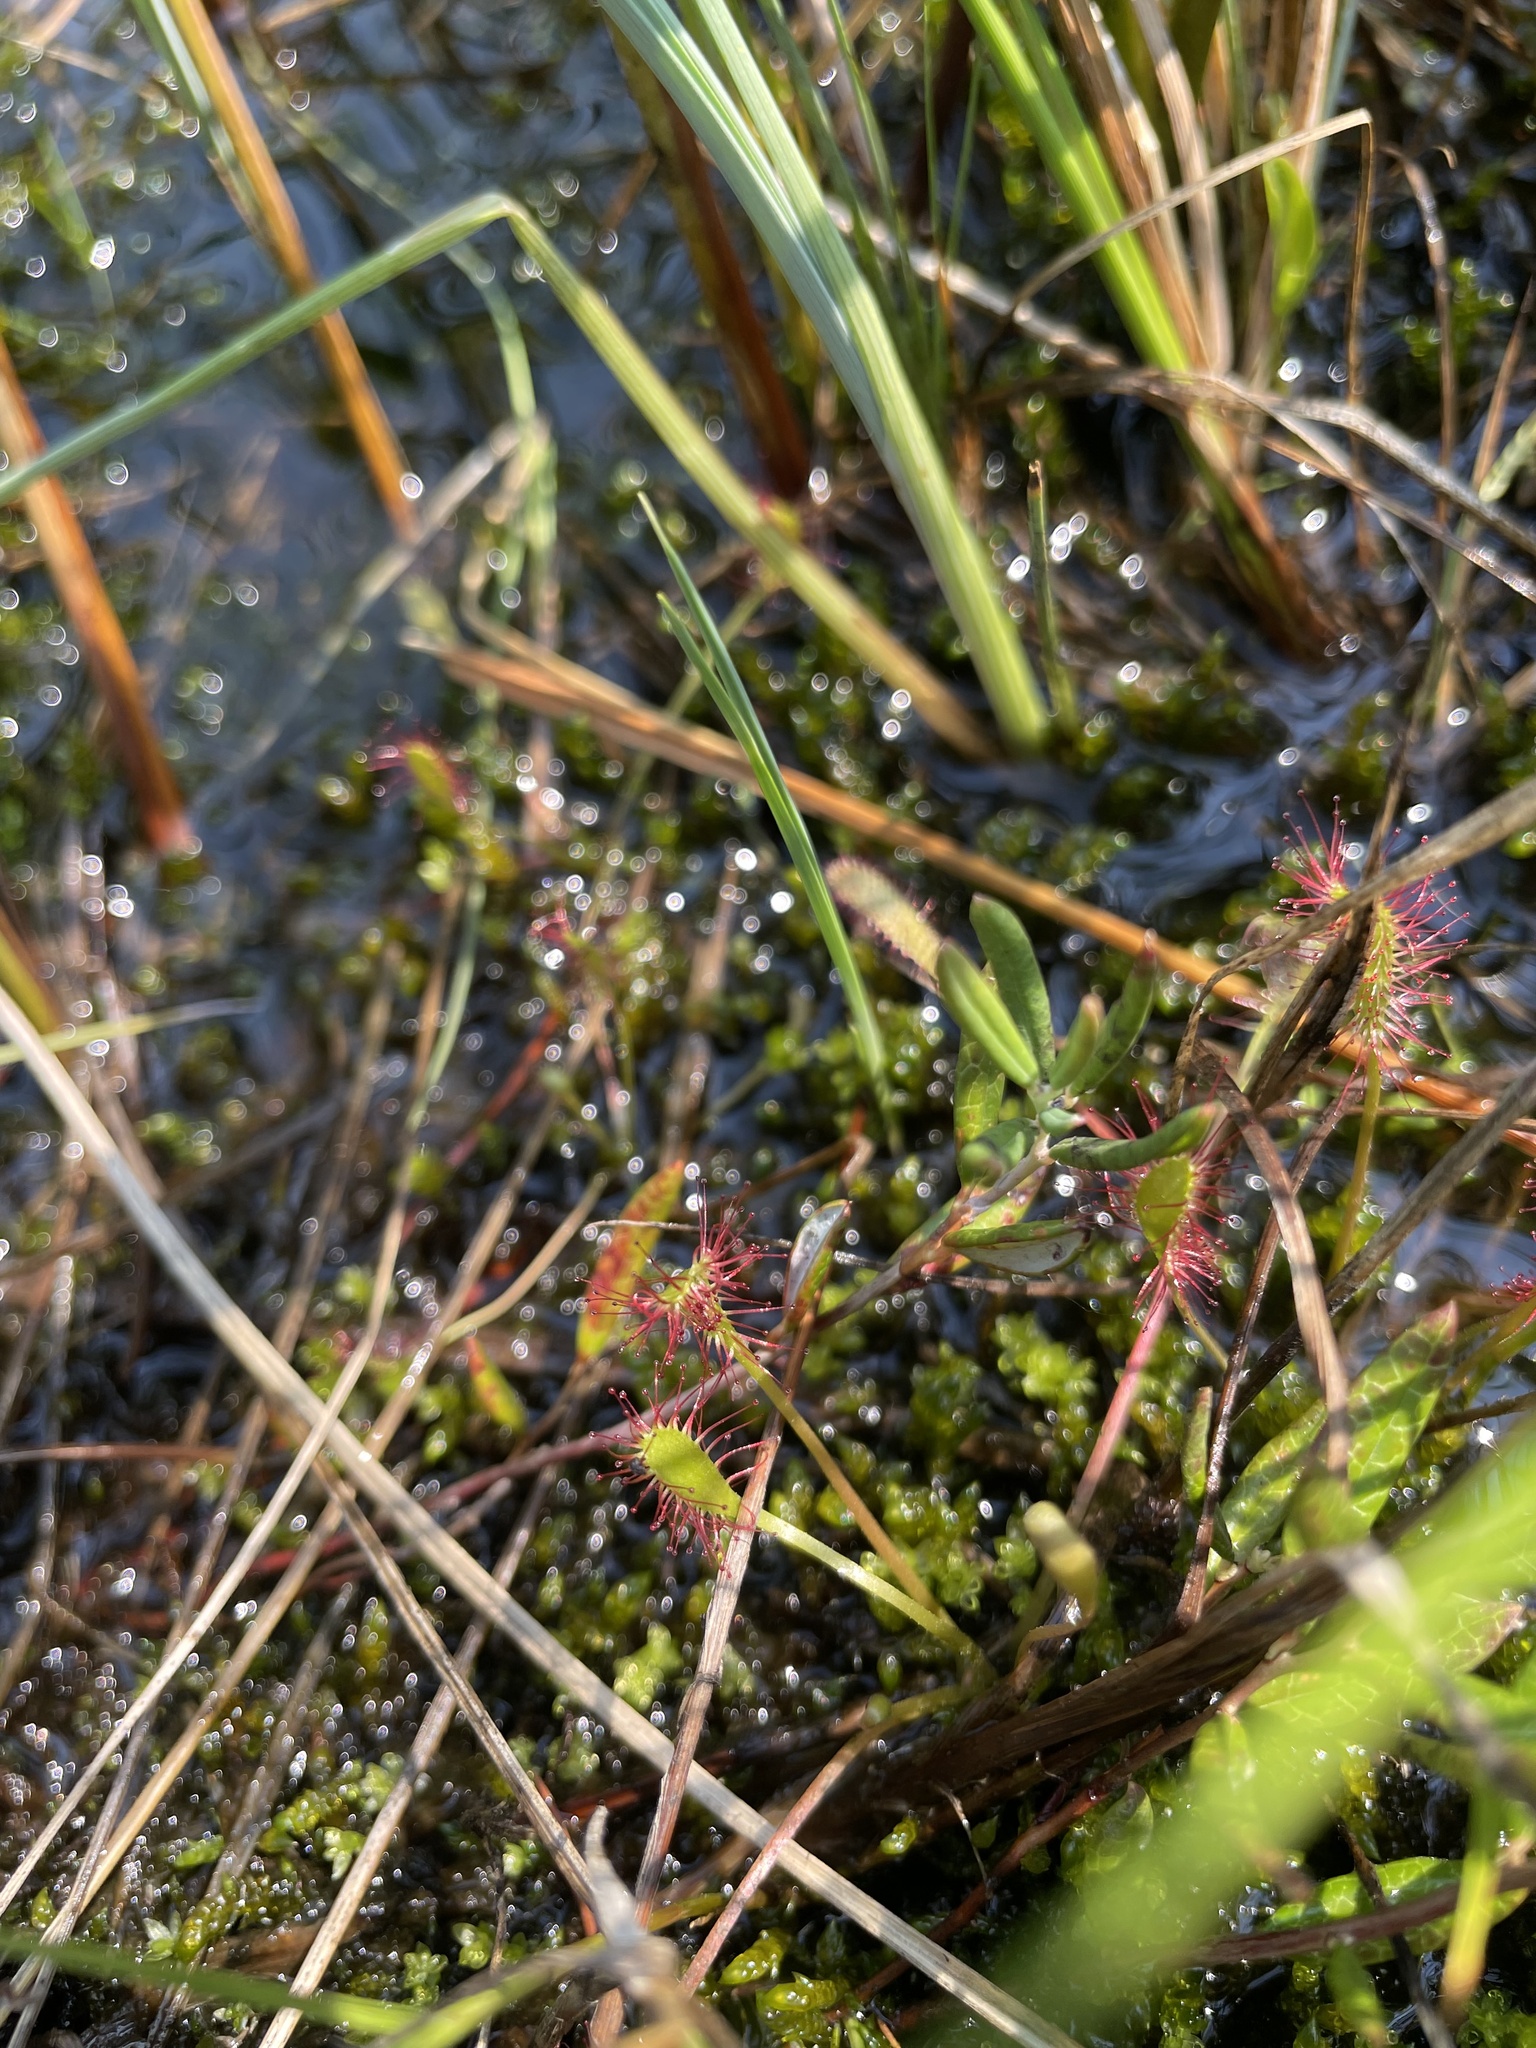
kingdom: Plantae
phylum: Tracheophyta
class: Magnoliopsida
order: Caryophyllales
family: Droseraceae
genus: Drosera
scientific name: Drosera anglica
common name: Great sundew
